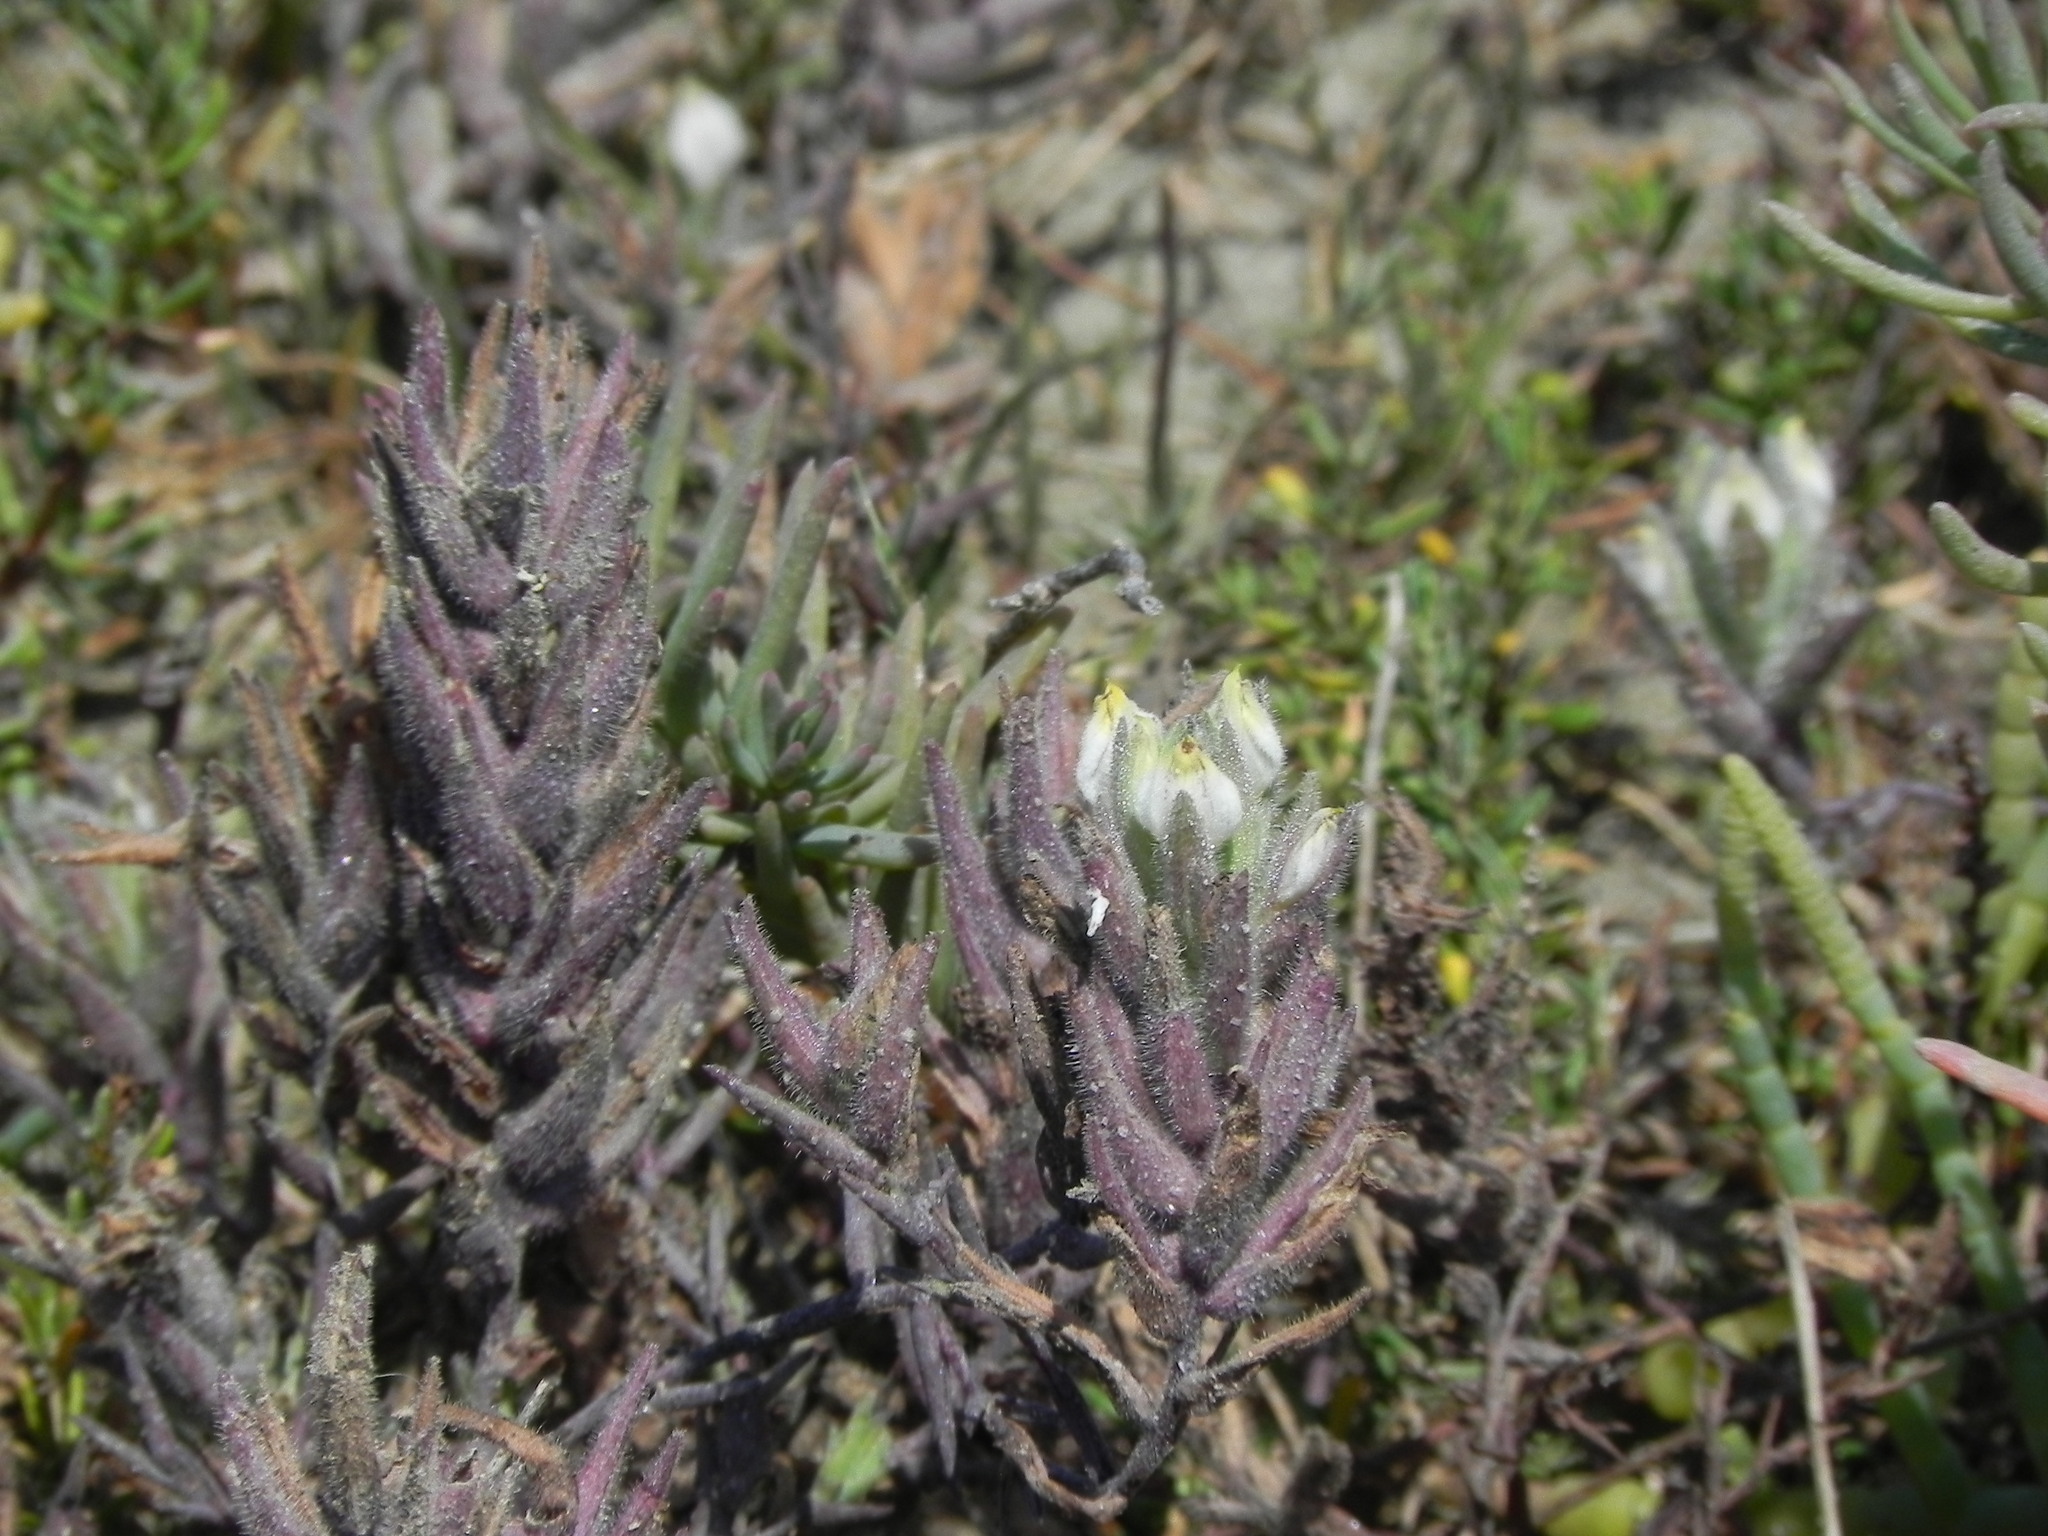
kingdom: Plantae
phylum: Tracheophyta
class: Magnoliopsida
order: Lamiales
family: Orobanchaceae
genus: Chloropyron
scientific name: Chloropyron maritimum
